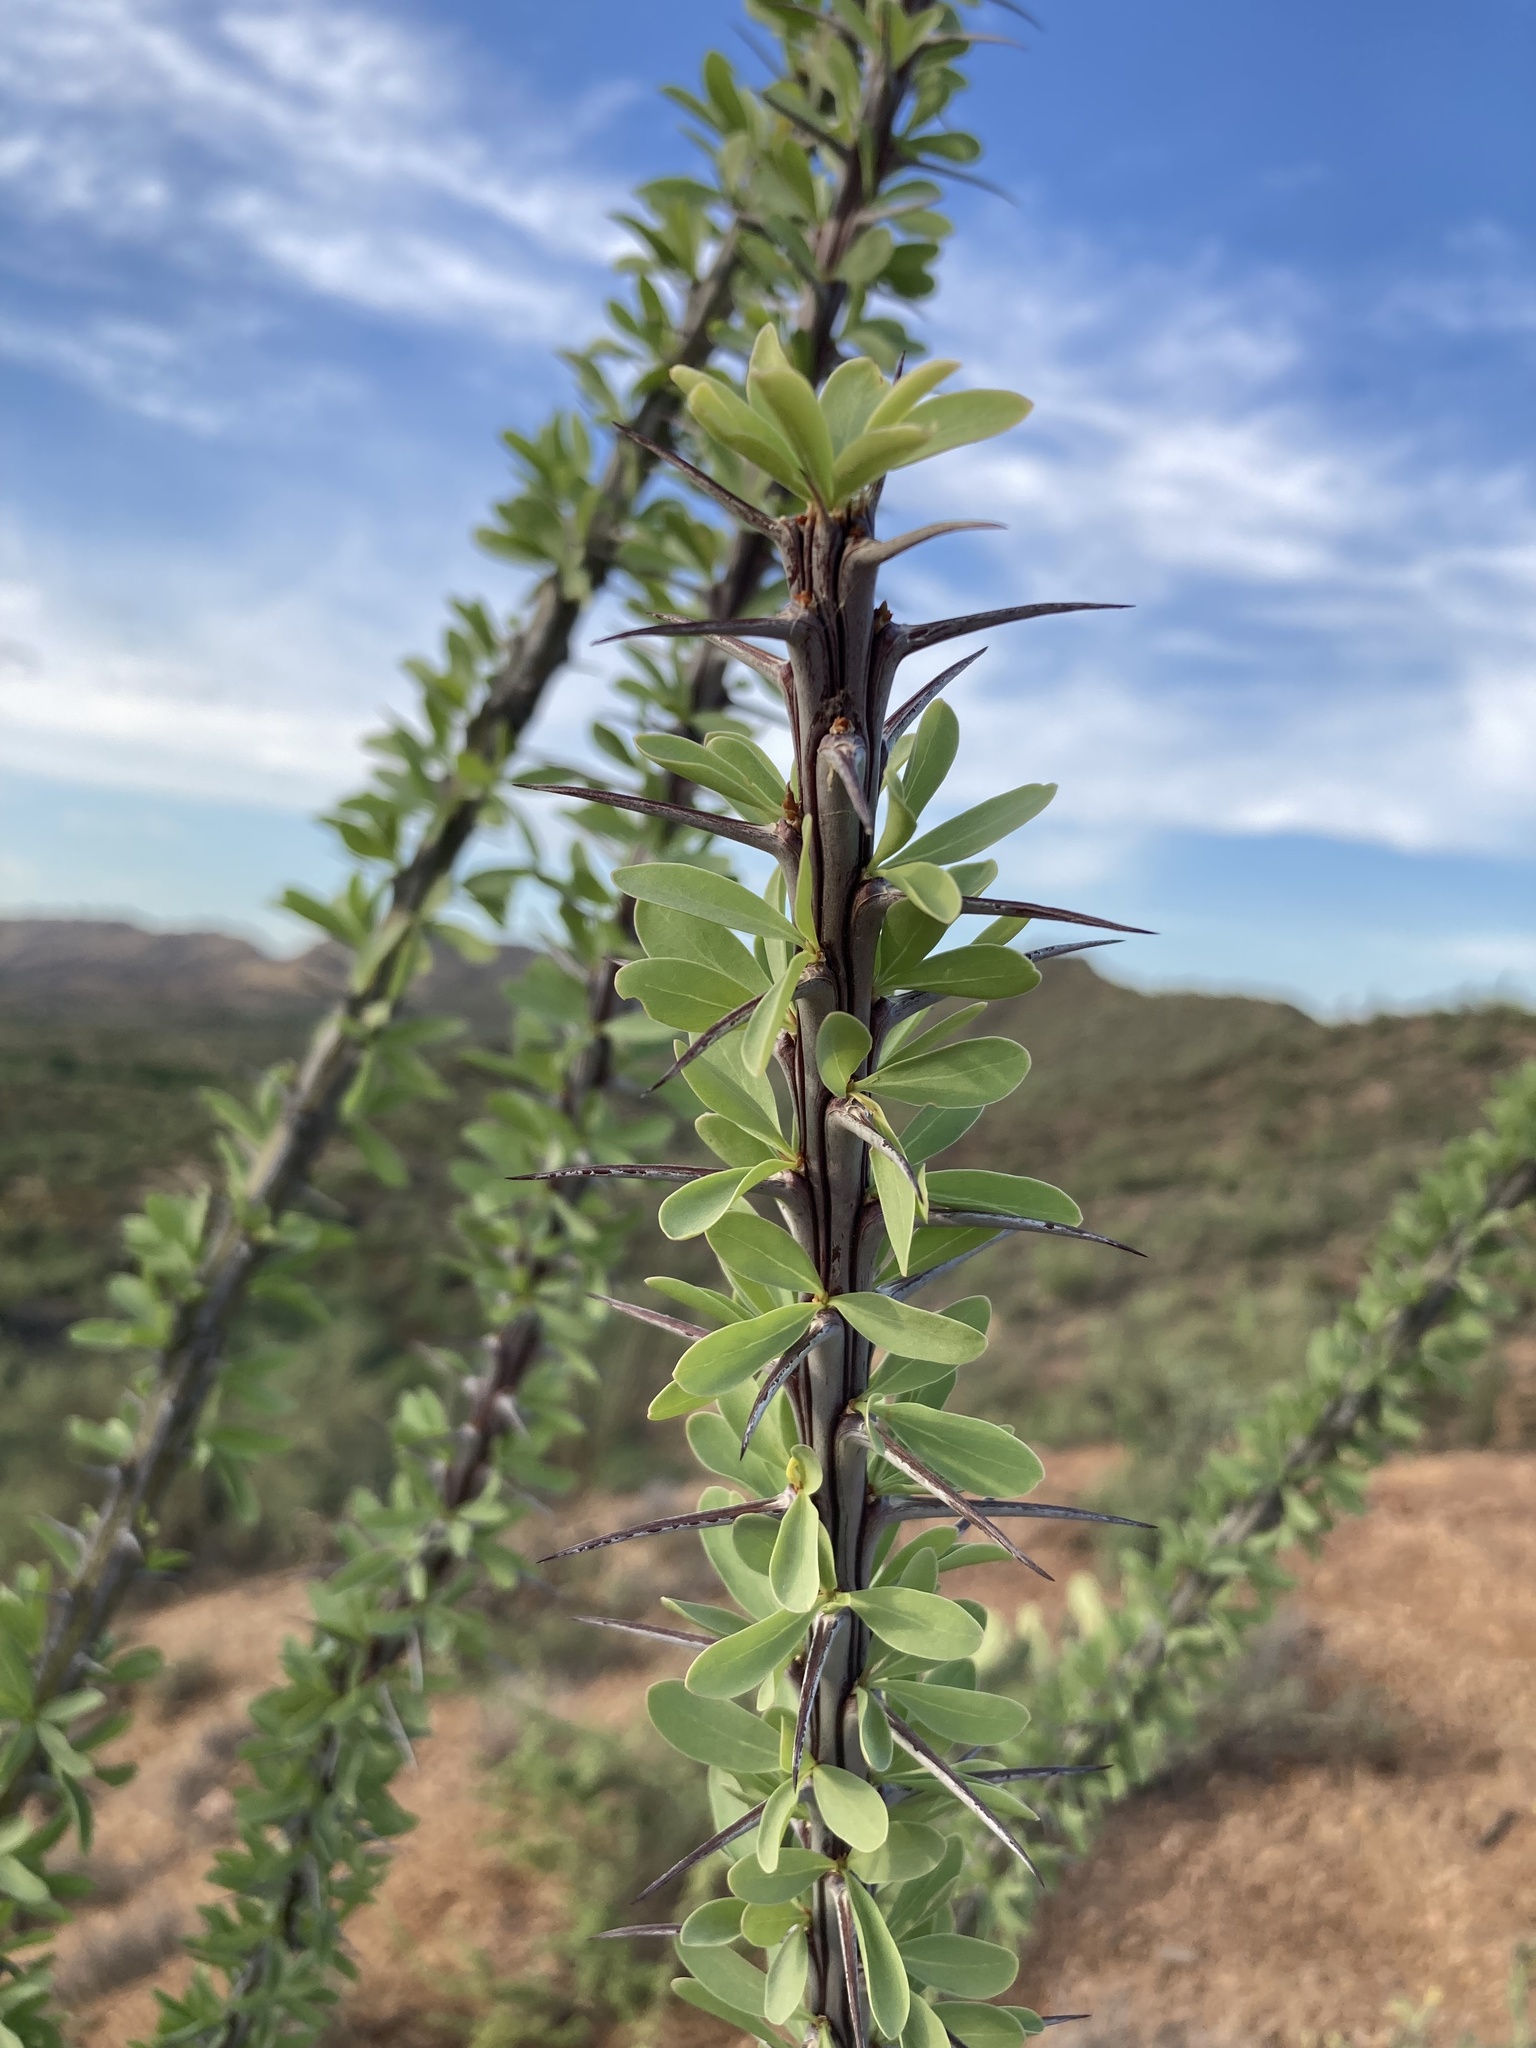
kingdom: Plantae
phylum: Tracheophyta
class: Magnoliopsida
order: Ericales
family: Fouquieriaceae
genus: Fouquieria
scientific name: Fouquieria splendens
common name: Vine-cactus
